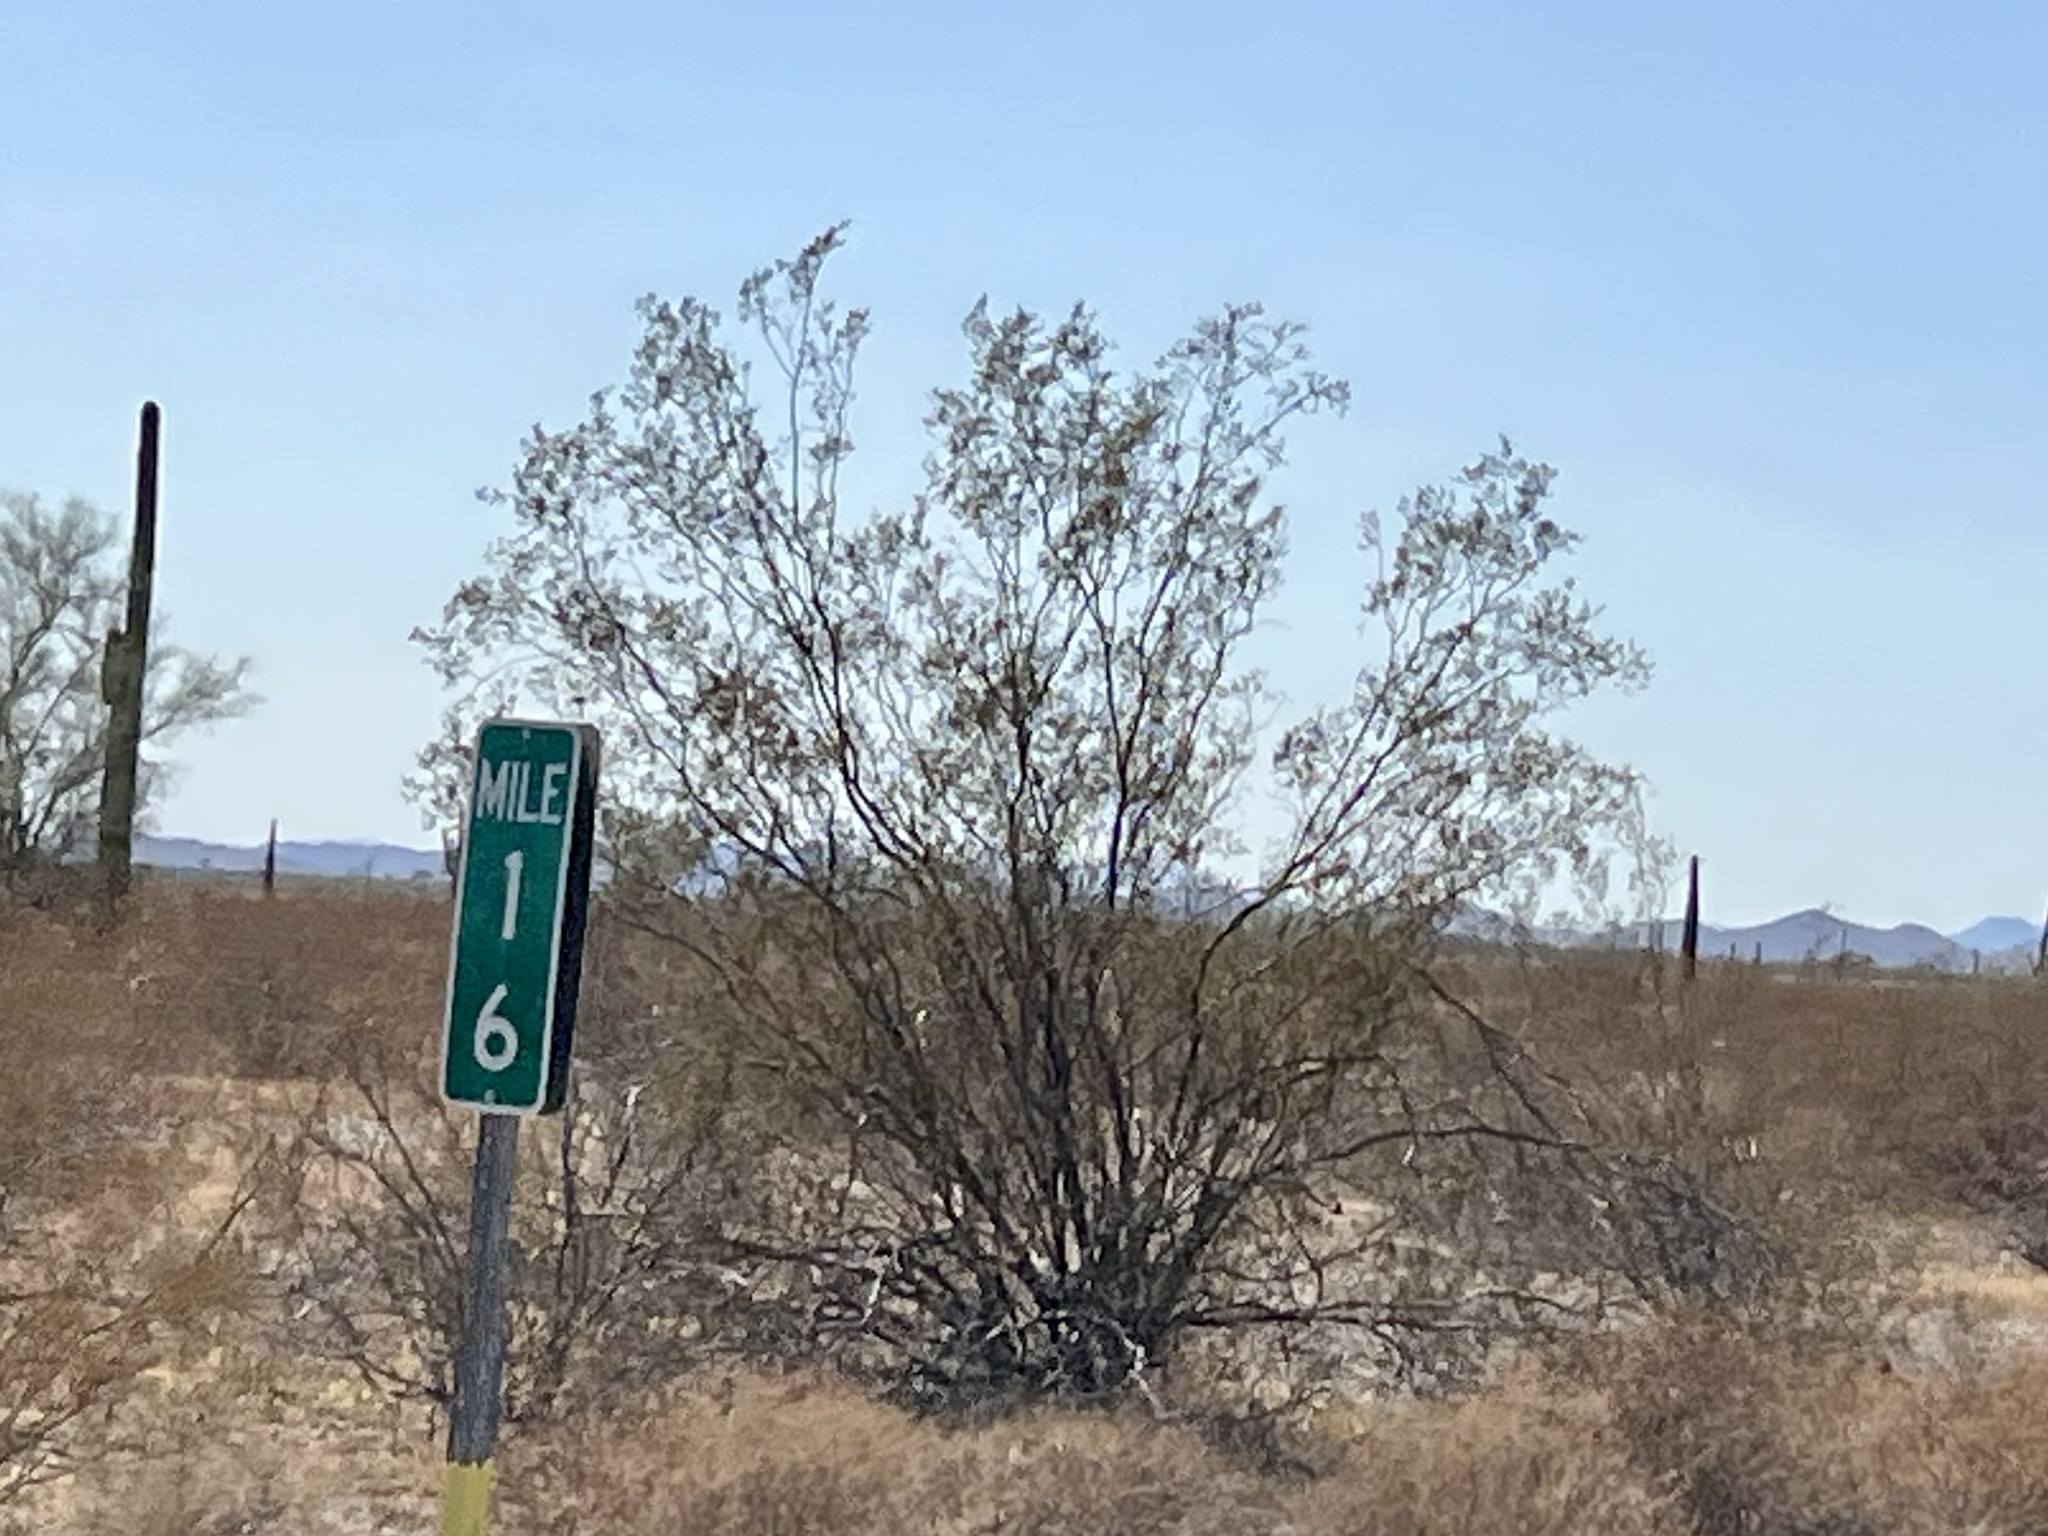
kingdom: Plantae
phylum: Tracheophyta
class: Magnoliopsida
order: Zygophyllales
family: Zygophyllaceae
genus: Larrea
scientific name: Larrea tridentata
